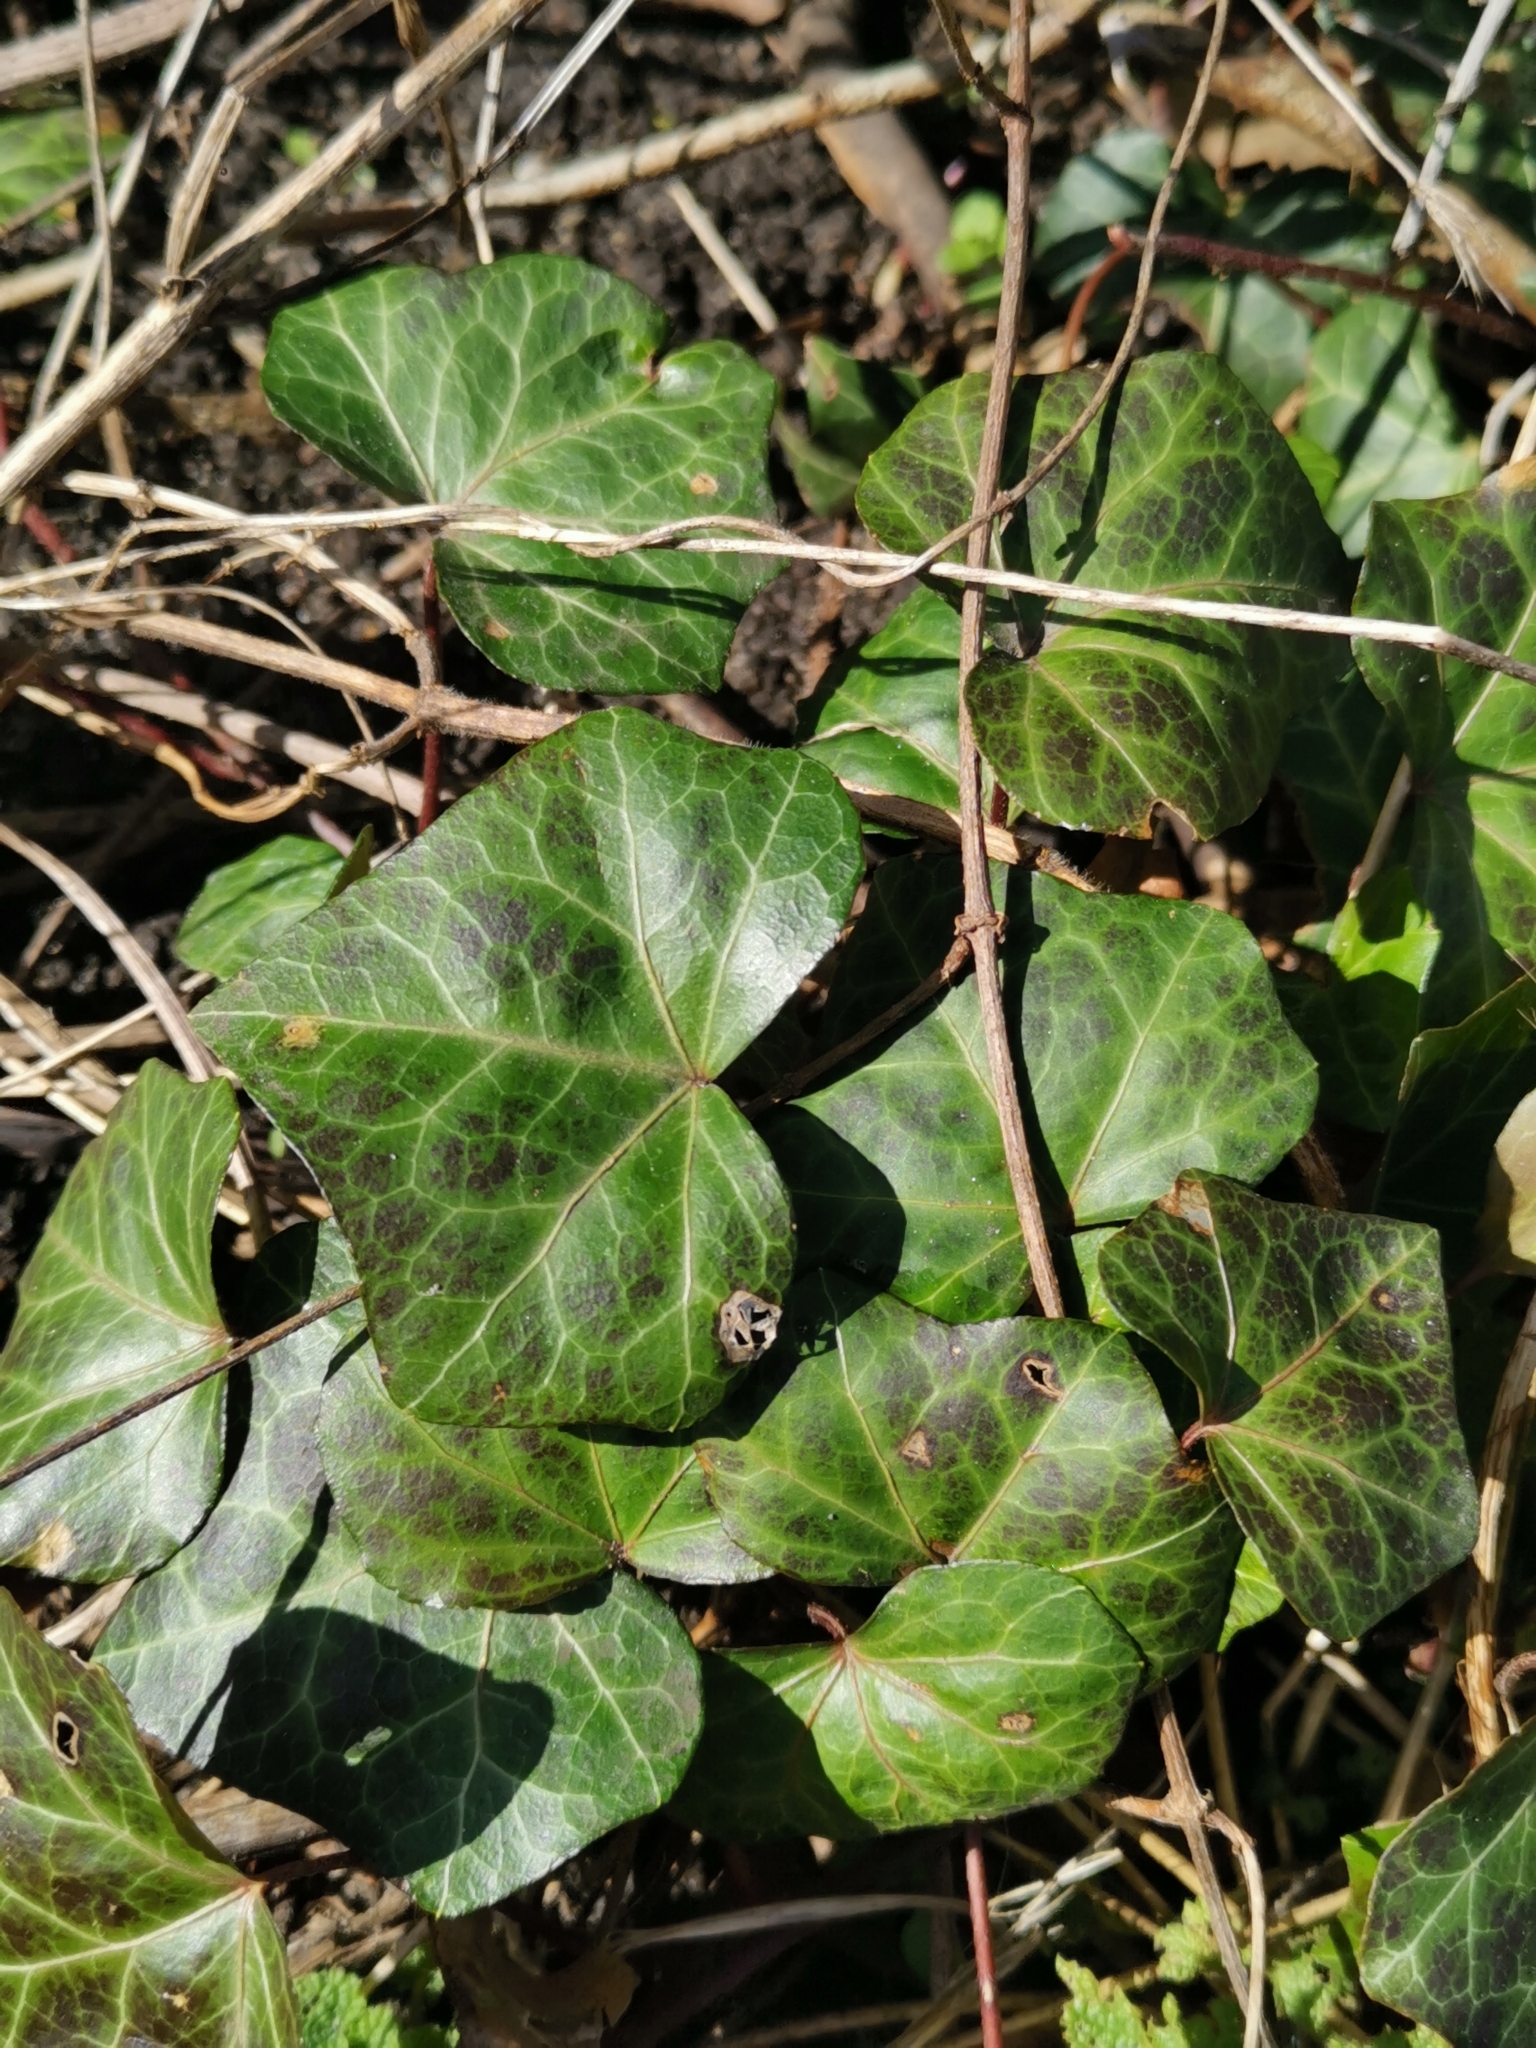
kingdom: Plantae
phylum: Tracheophyta
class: Magnoliopsida
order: Apiales
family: Araliaceae
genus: Hedera
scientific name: Hedera helix
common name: Ivy
